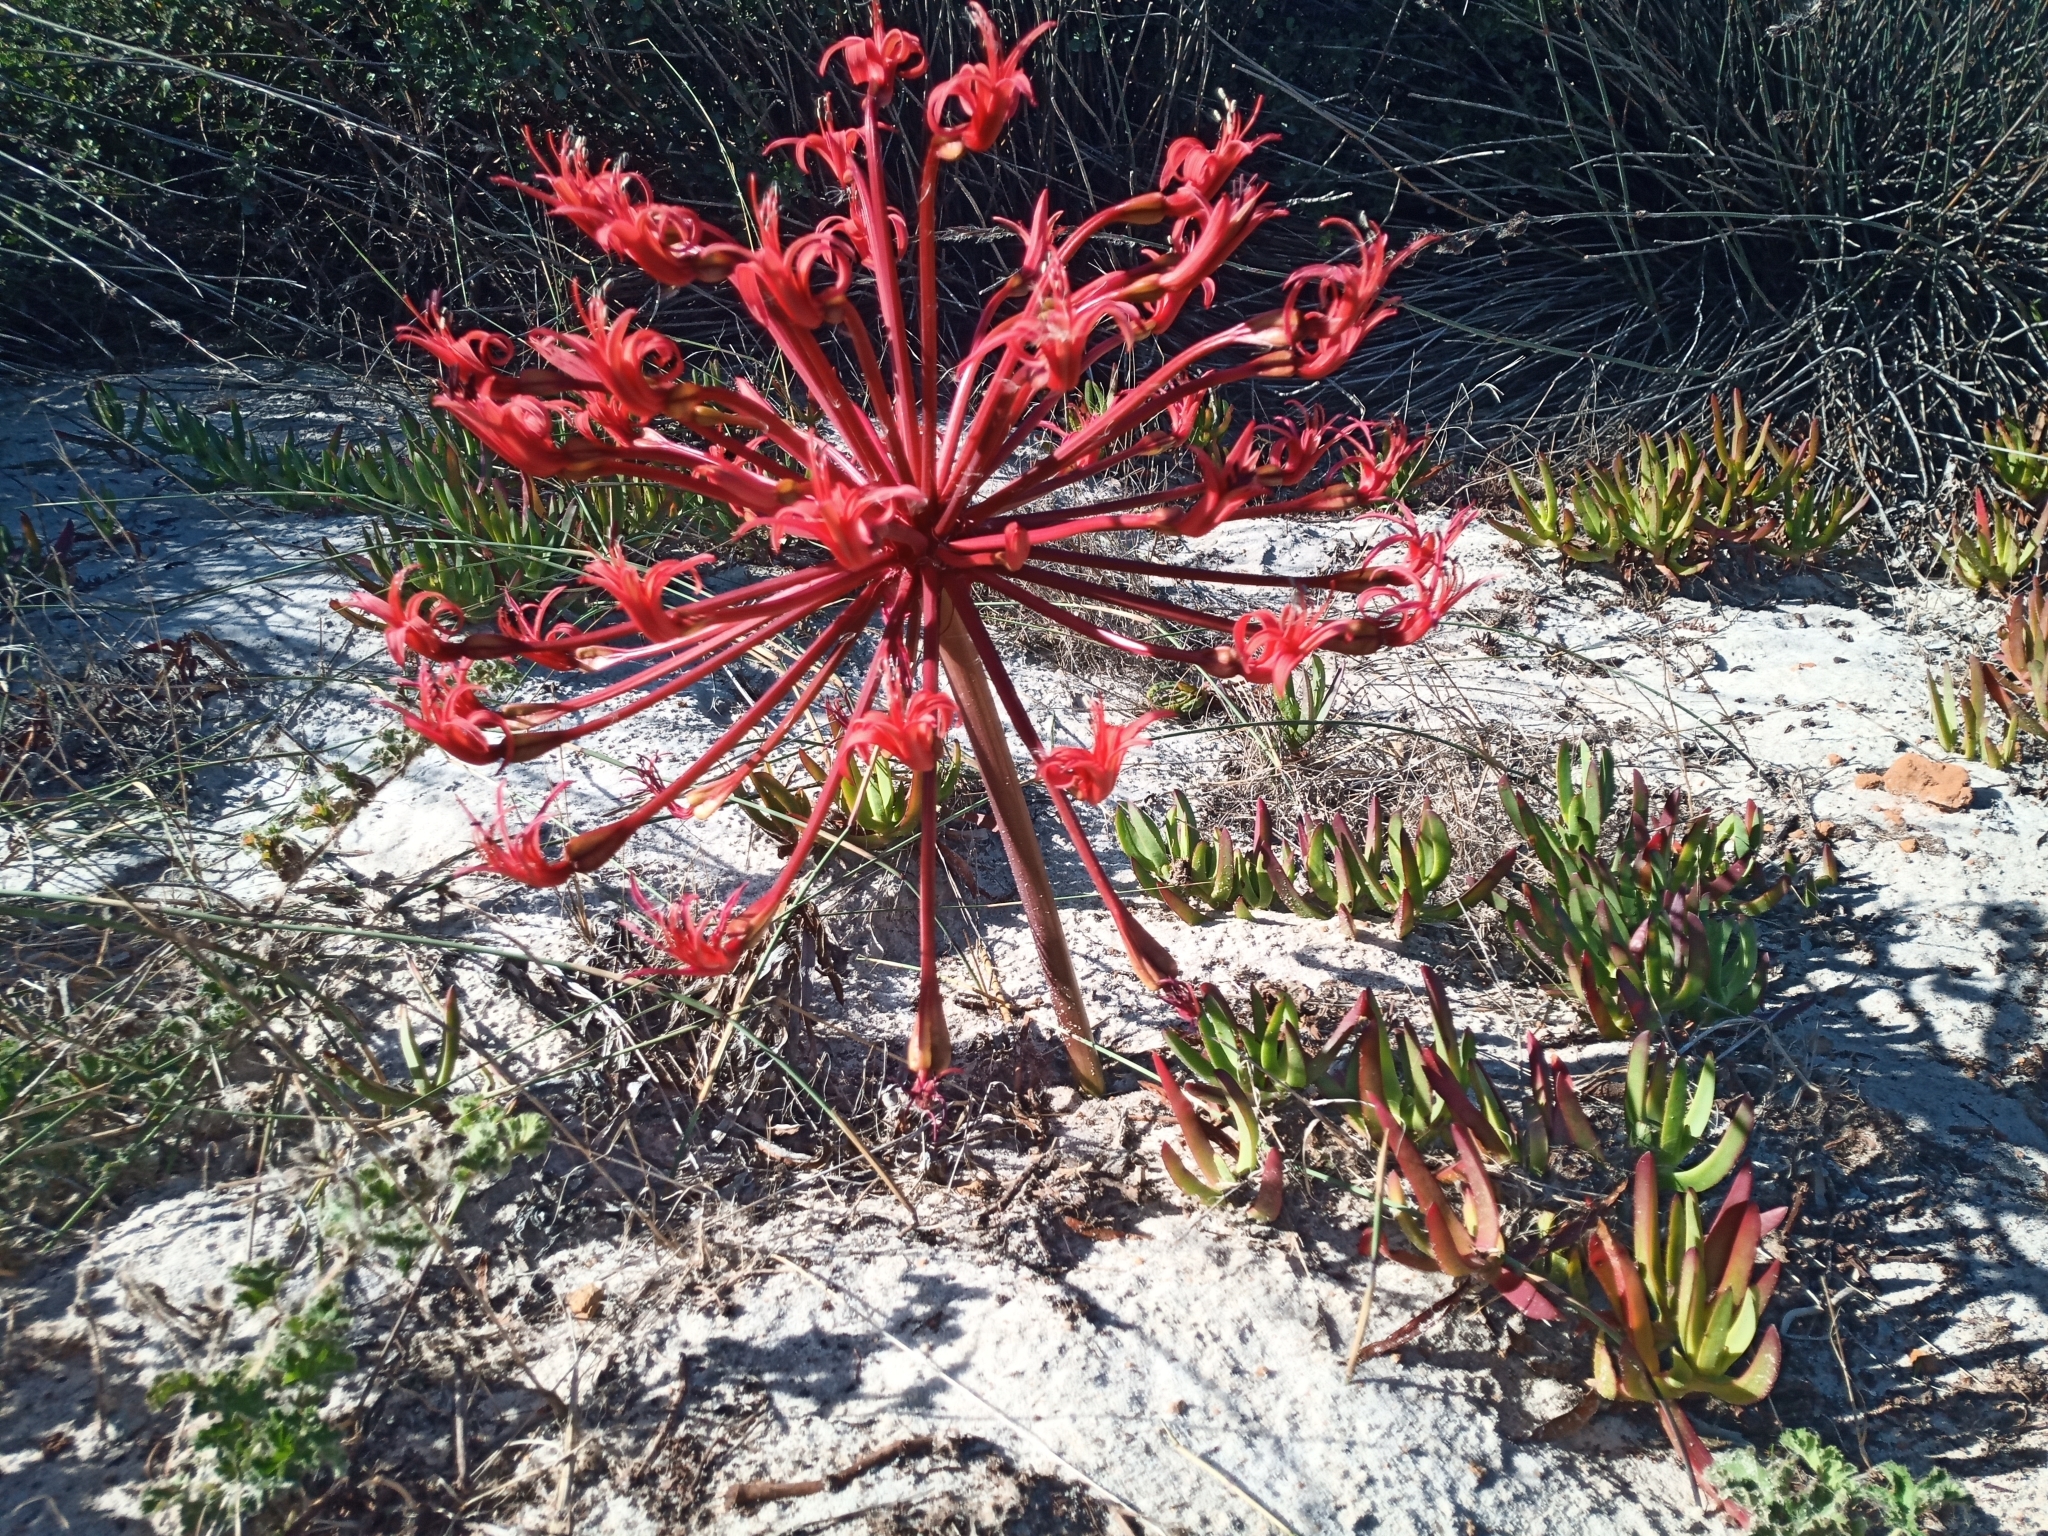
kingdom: Plantae
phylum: Tracheophyta
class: Liliopsida
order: Asparagales
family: Amaryllidaceae
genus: Brunsvigia
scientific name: Brunsvigia orientalis
